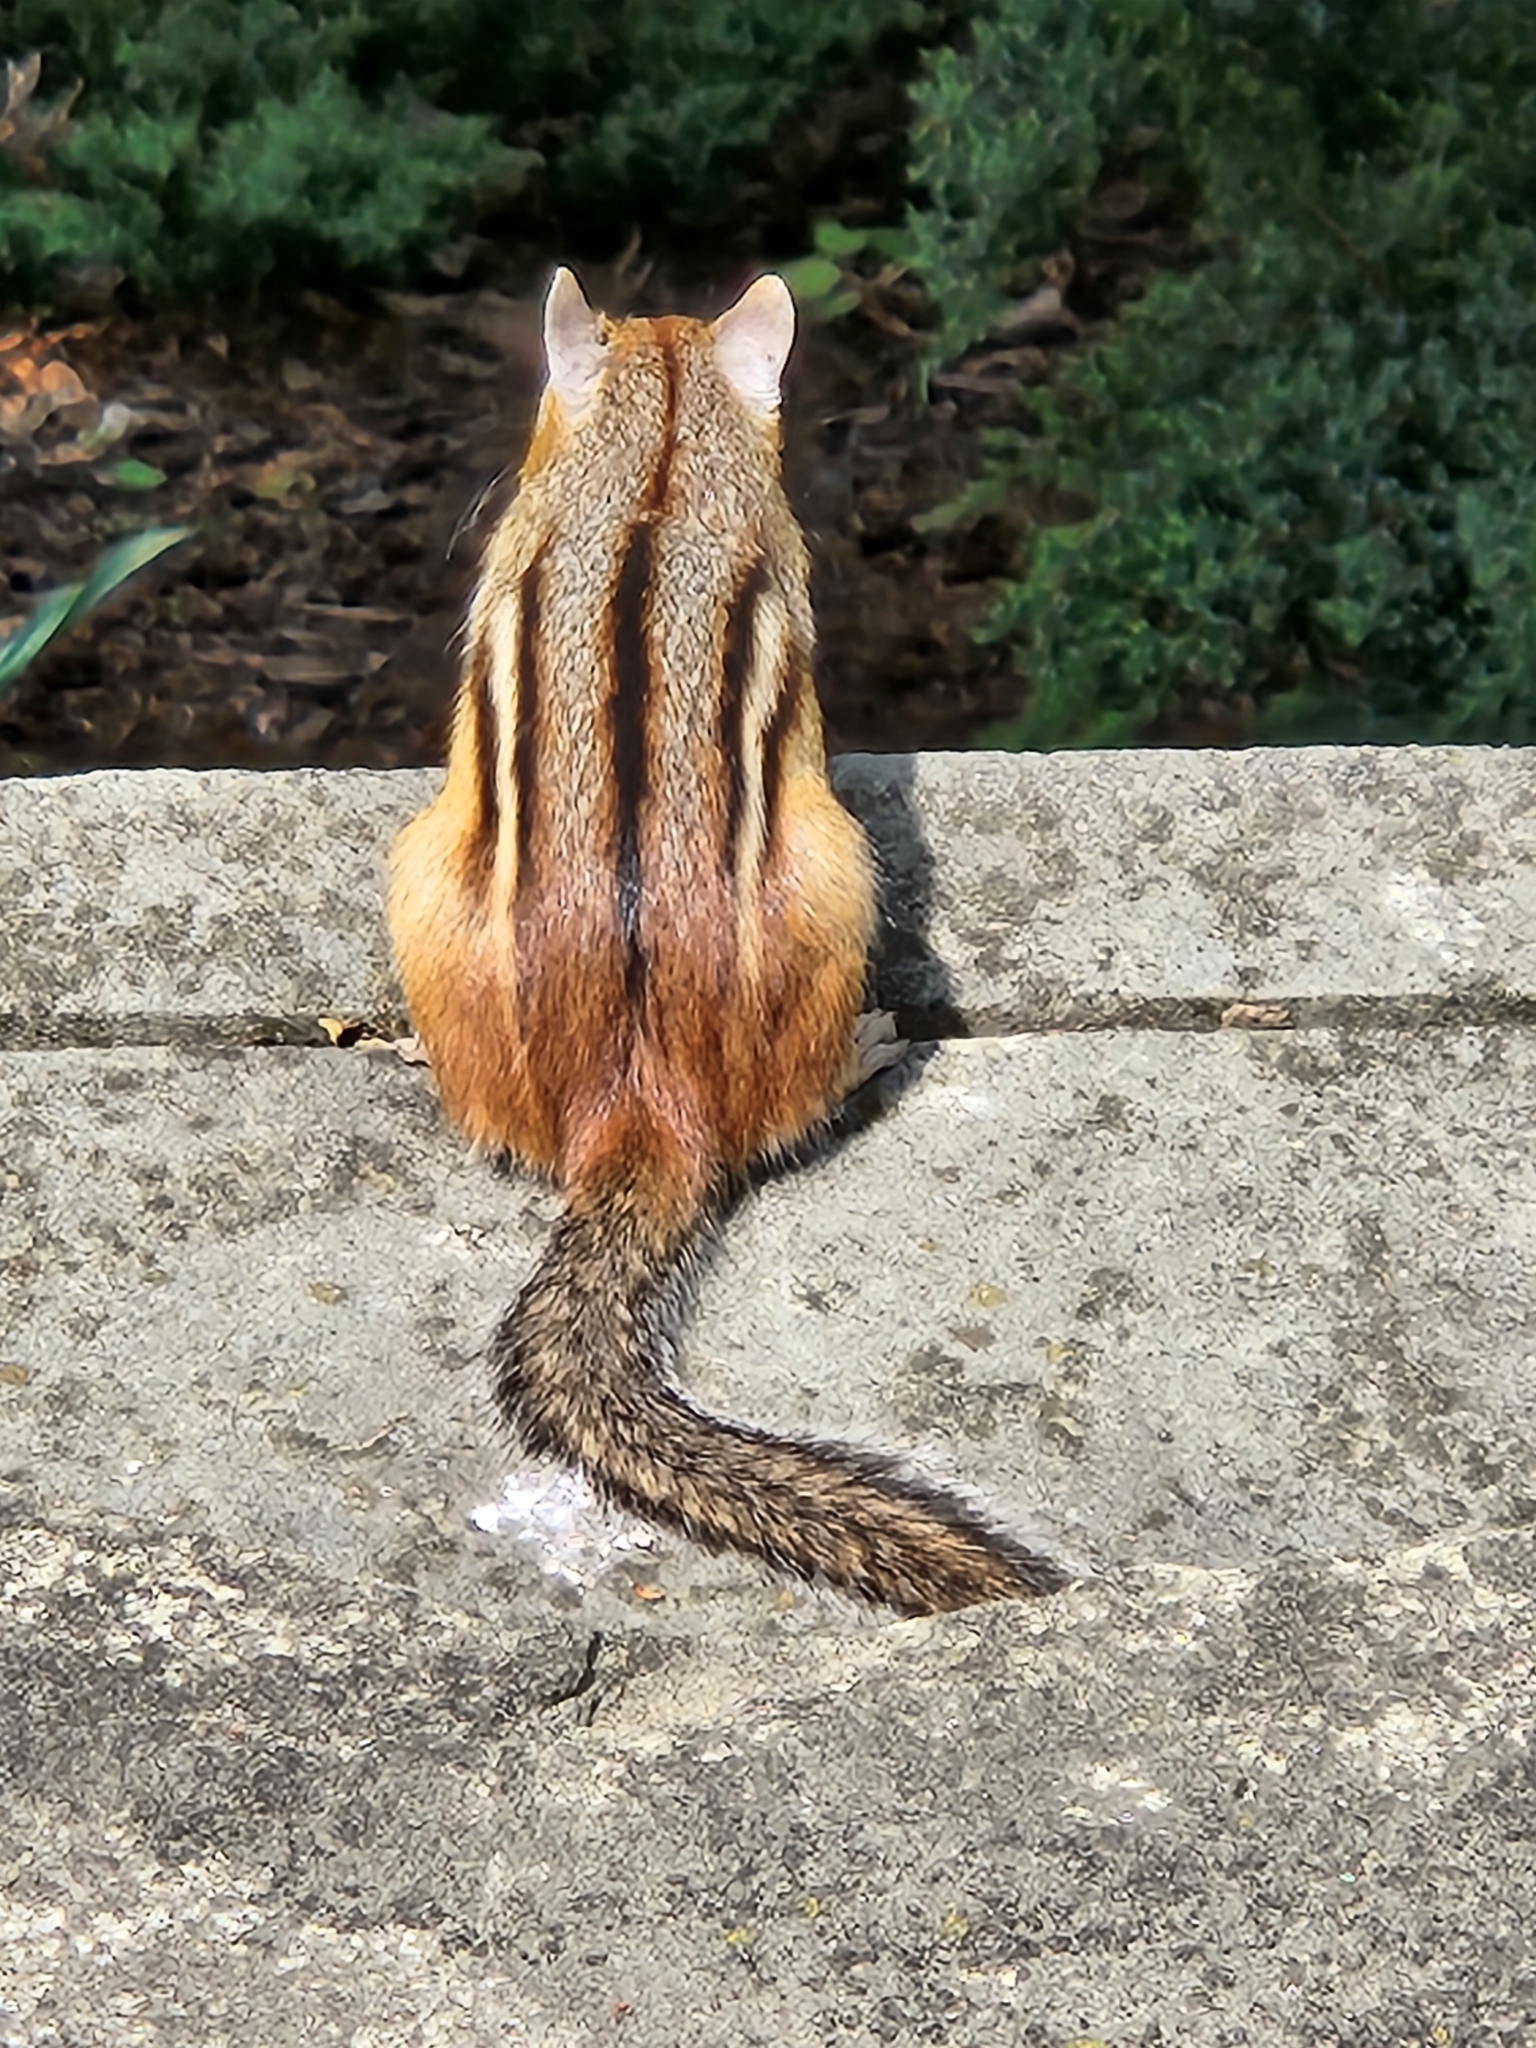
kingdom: Animalia
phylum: Chordata
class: Mammalia
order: Rodentia
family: Sciuridae
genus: Tamias
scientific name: Tamias striatus
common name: Eastern chipmunk
